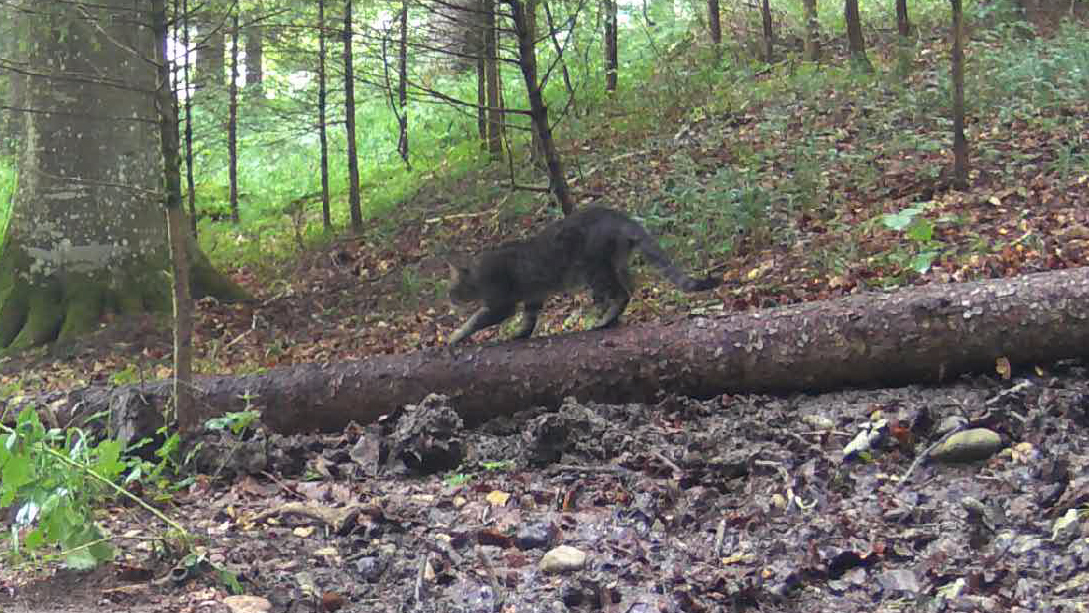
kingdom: Animalia
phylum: Chordata
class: Mammalia
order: Carnivora
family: Felidae
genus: Felis
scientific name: Felis catus
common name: Domestic cat
